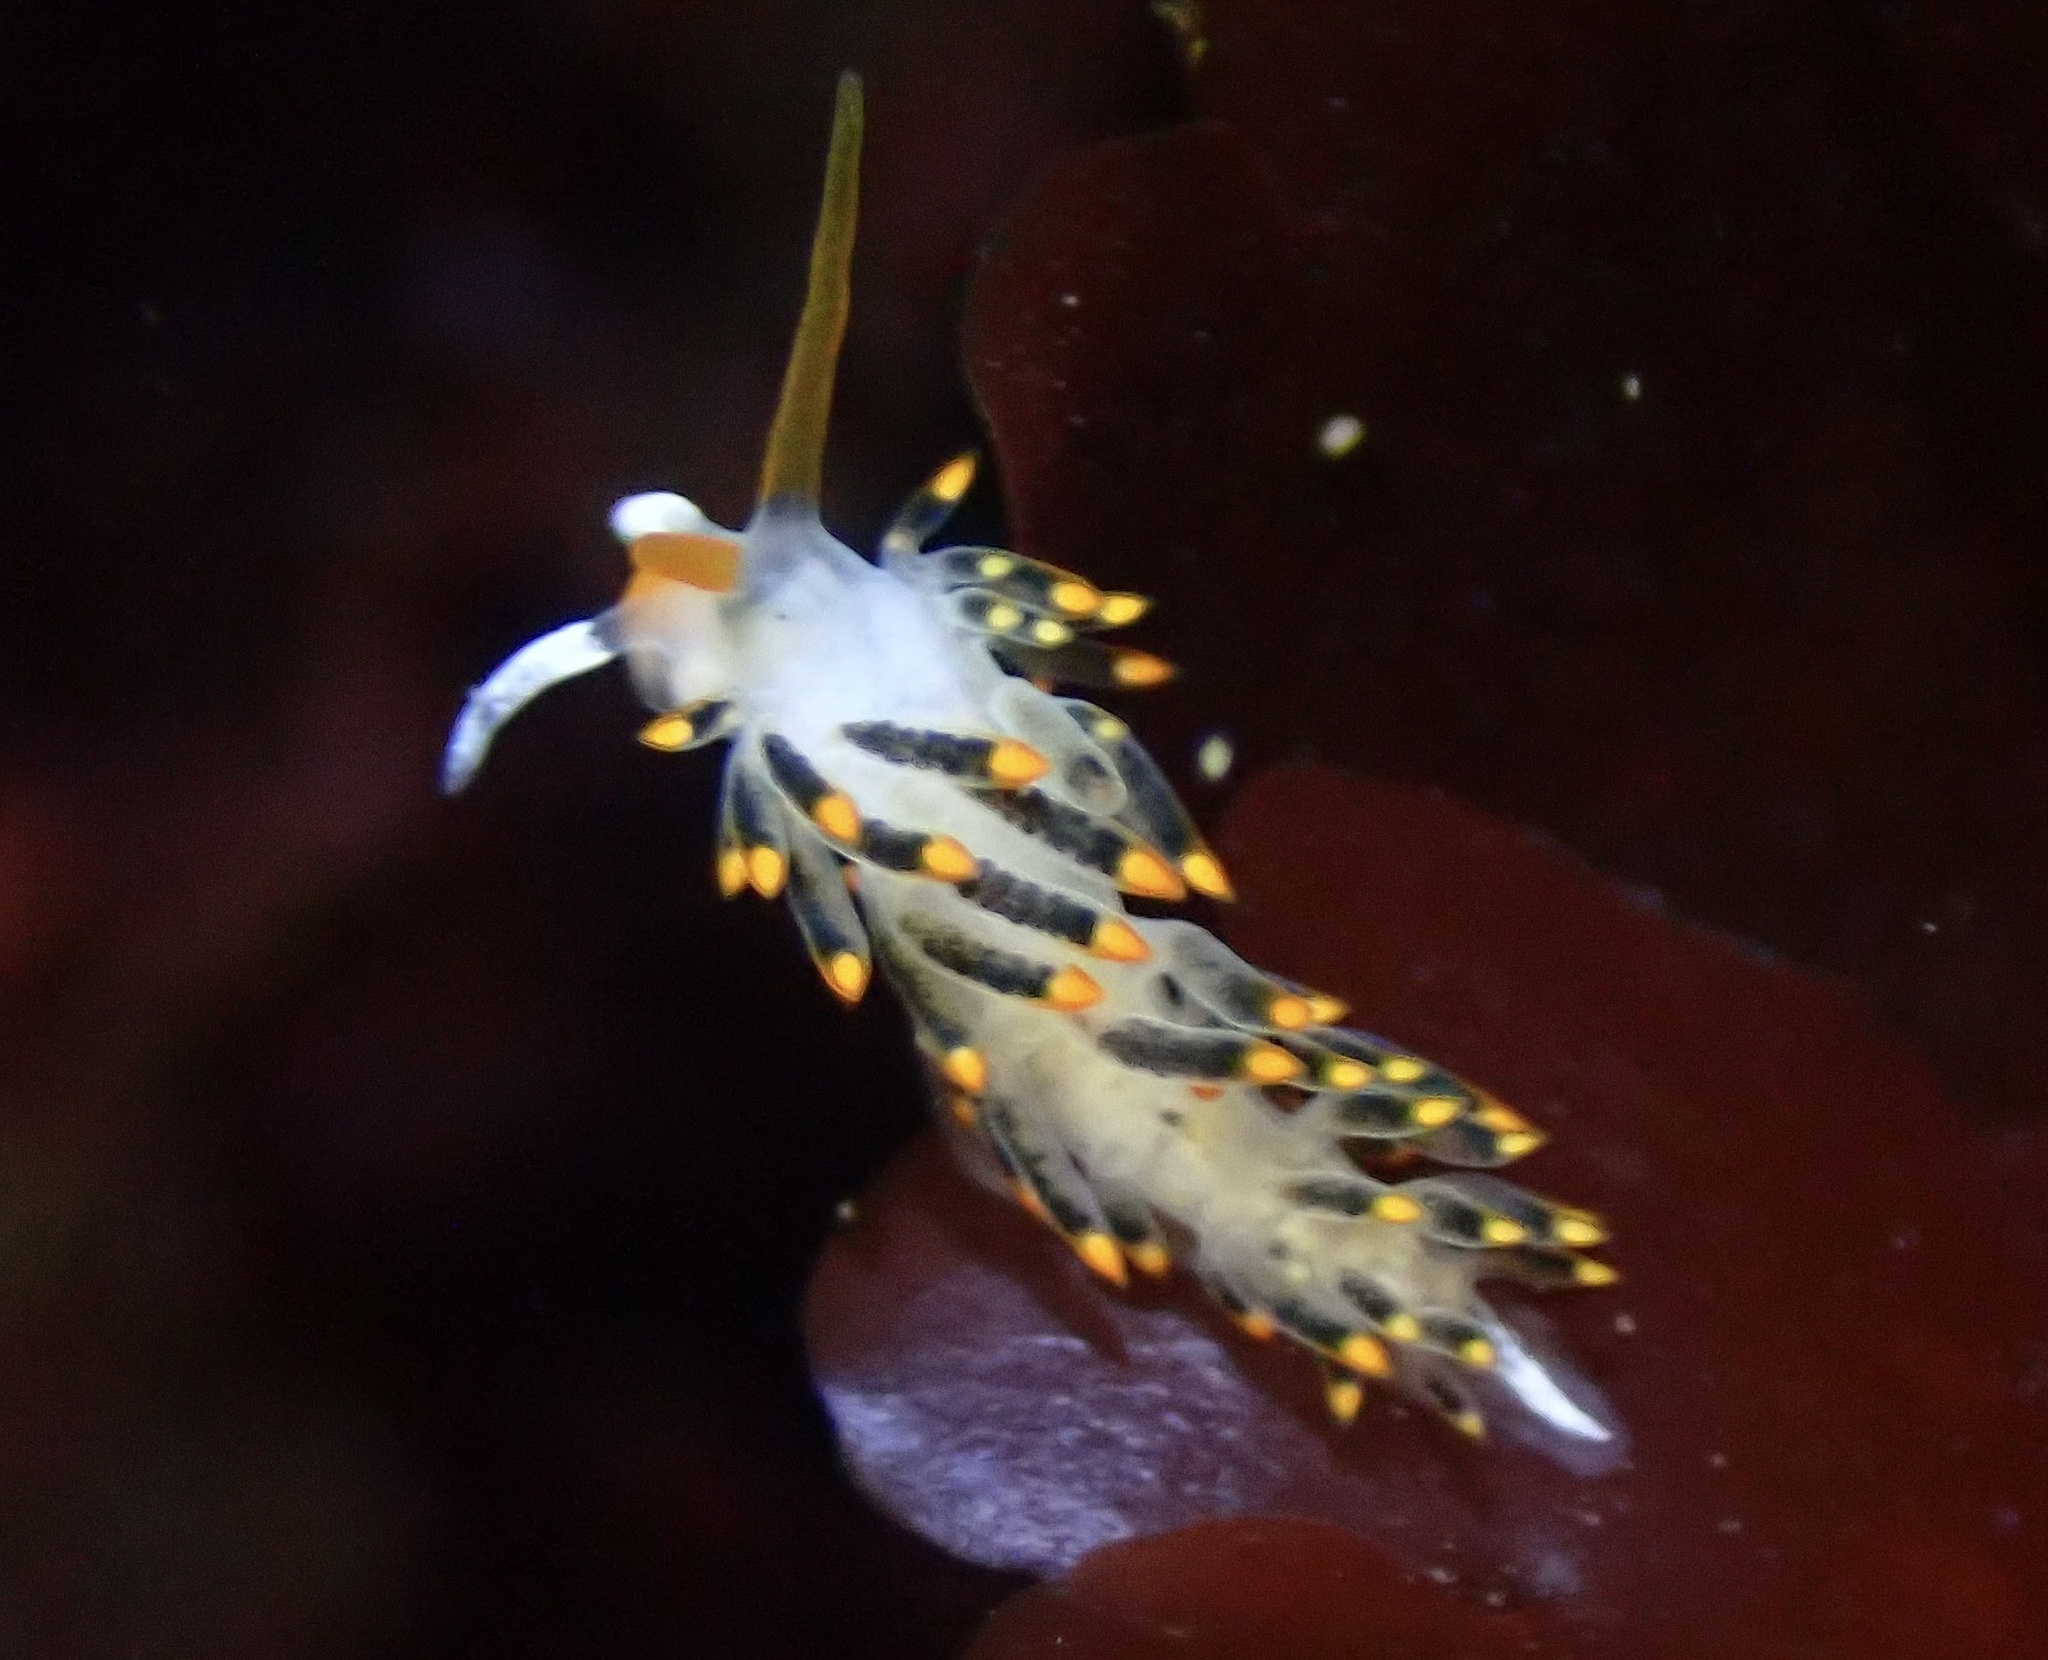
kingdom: Animalia
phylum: Mollusca
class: Gastropoda
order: Nudibranchia
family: Trinchesiidae
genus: Diaphoreolis
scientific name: Diaphoreolis lagunae
